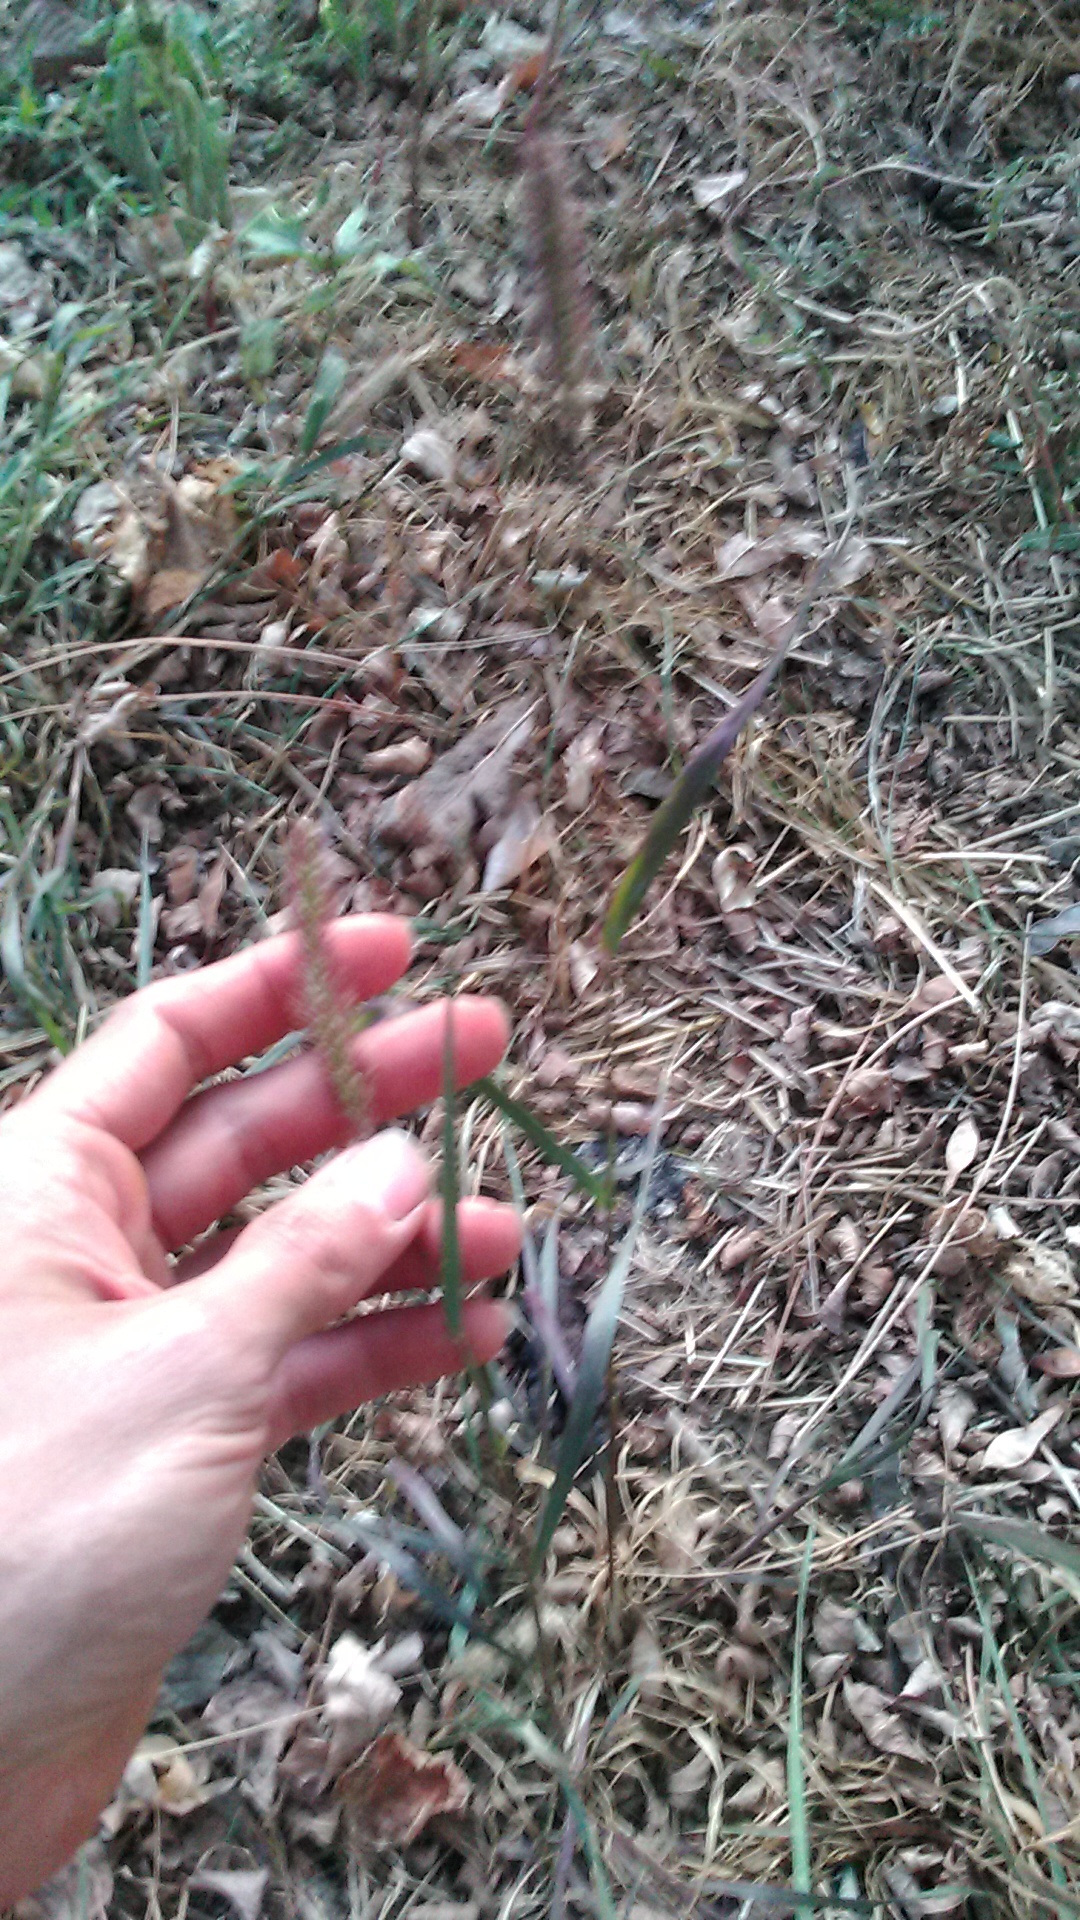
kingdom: Plantae
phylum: Tracheophyta
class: Liliopsida
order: Poales
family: Poaceae
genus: Setaria
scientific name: Setaria viridis
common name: Green bristlegrass
